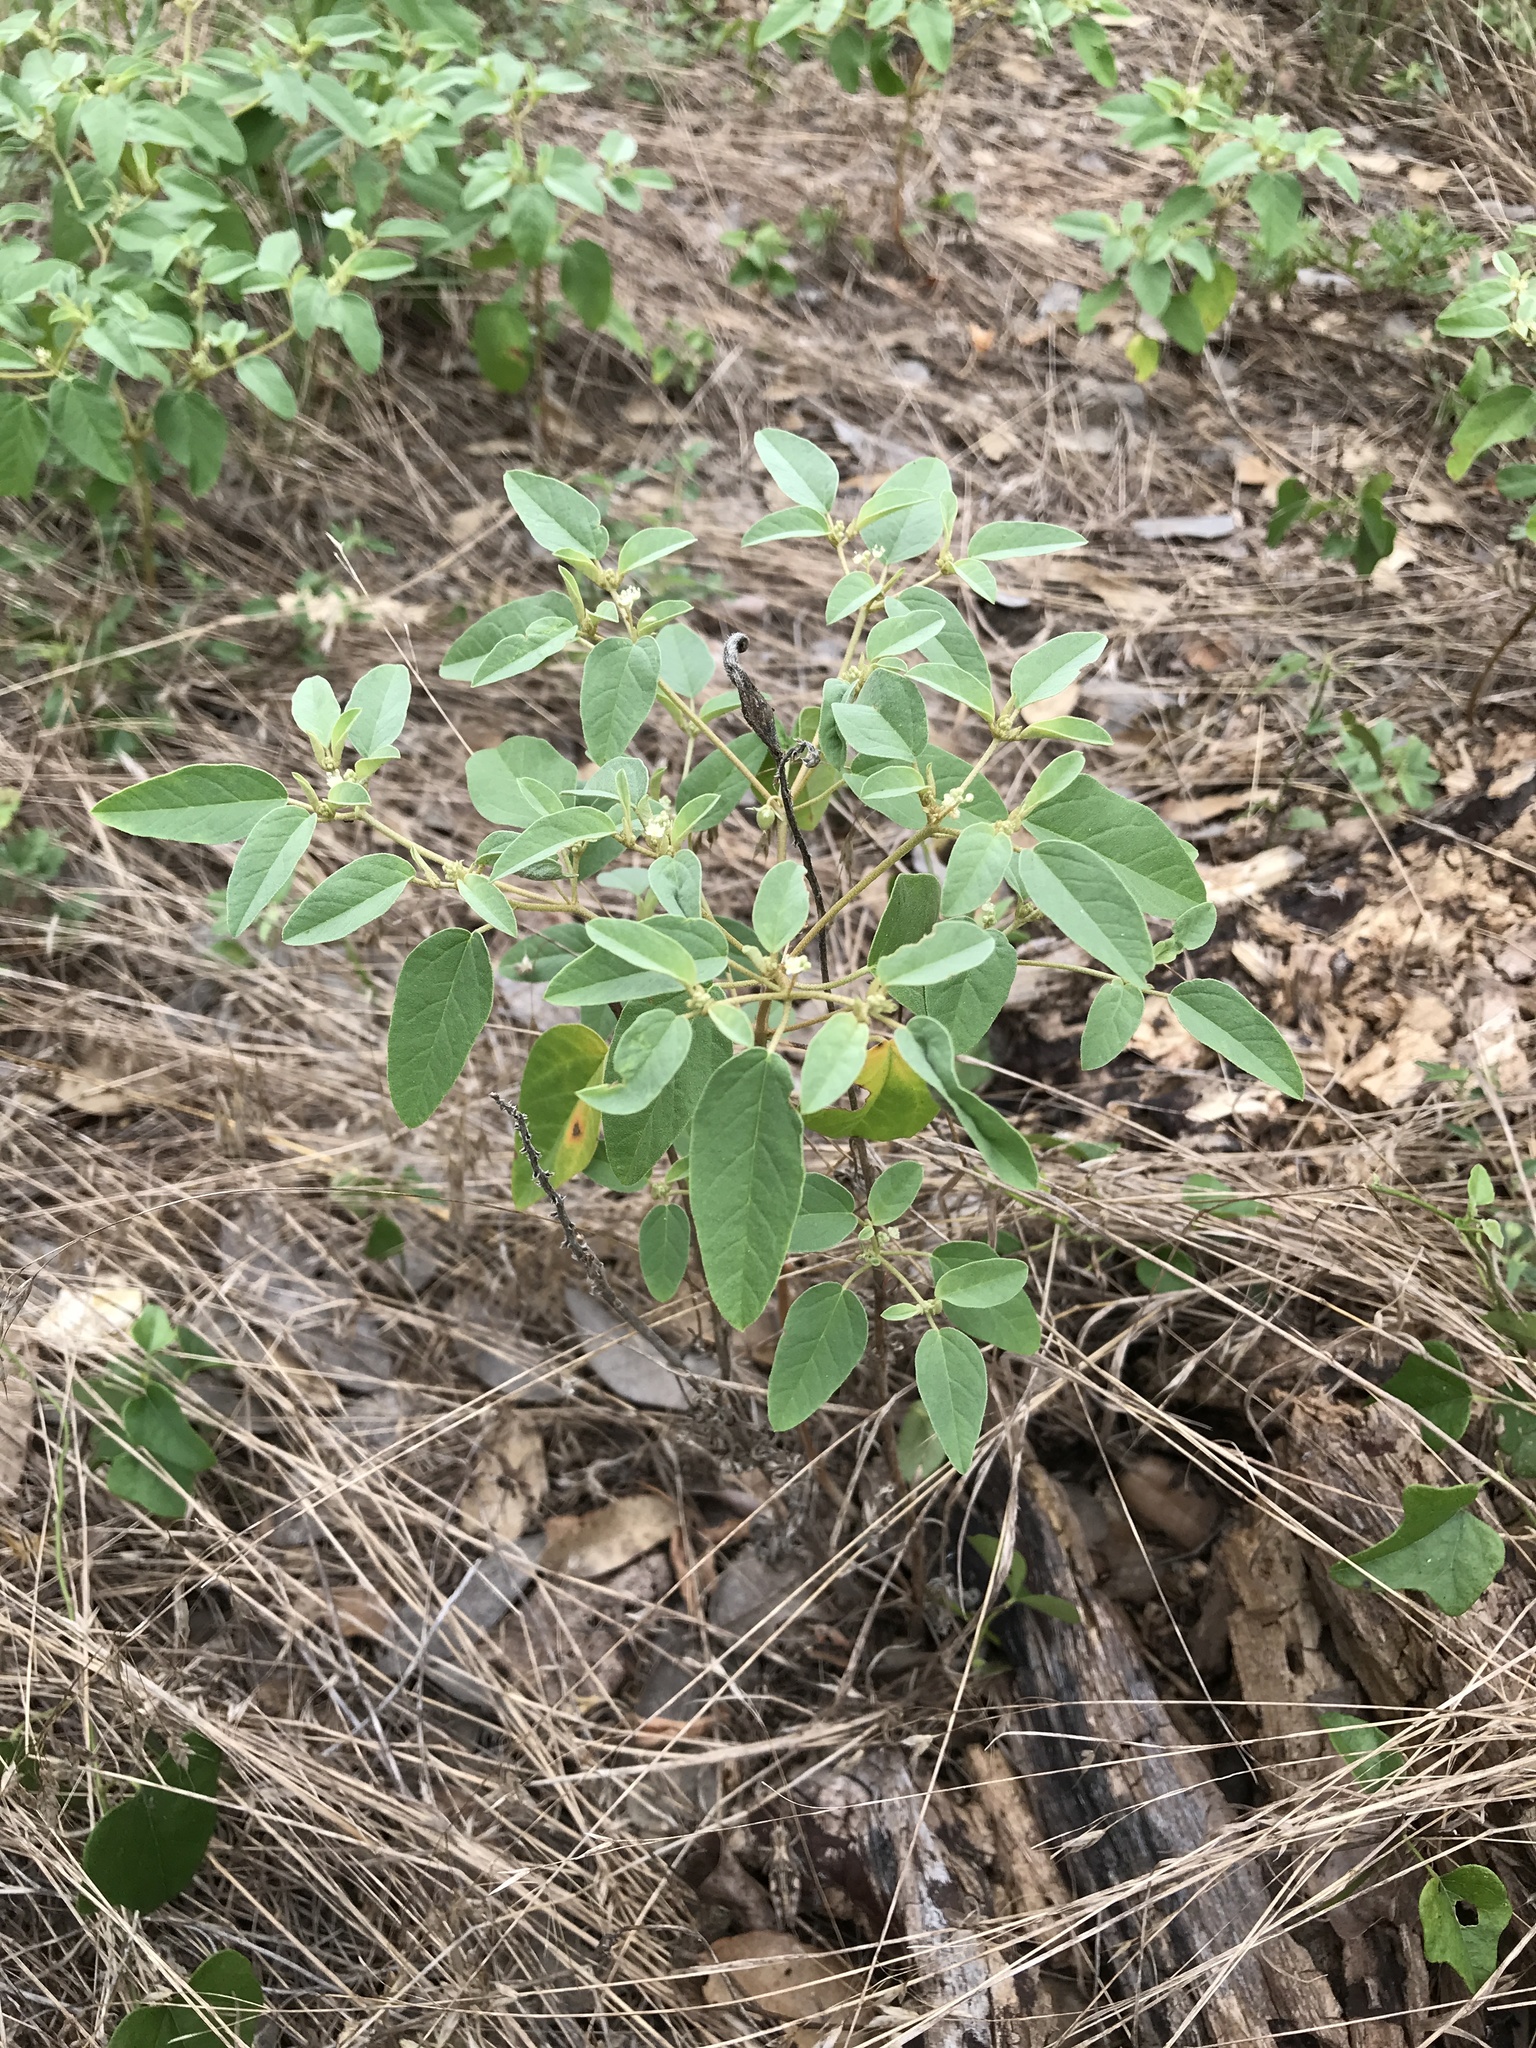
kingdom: Plantae
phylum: Tracheophyta
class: Magnoliopsida
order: Malpighiales
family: Euphorbiaceae
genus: Croton
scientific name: Croton monanthogynus
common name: One-seed croton
